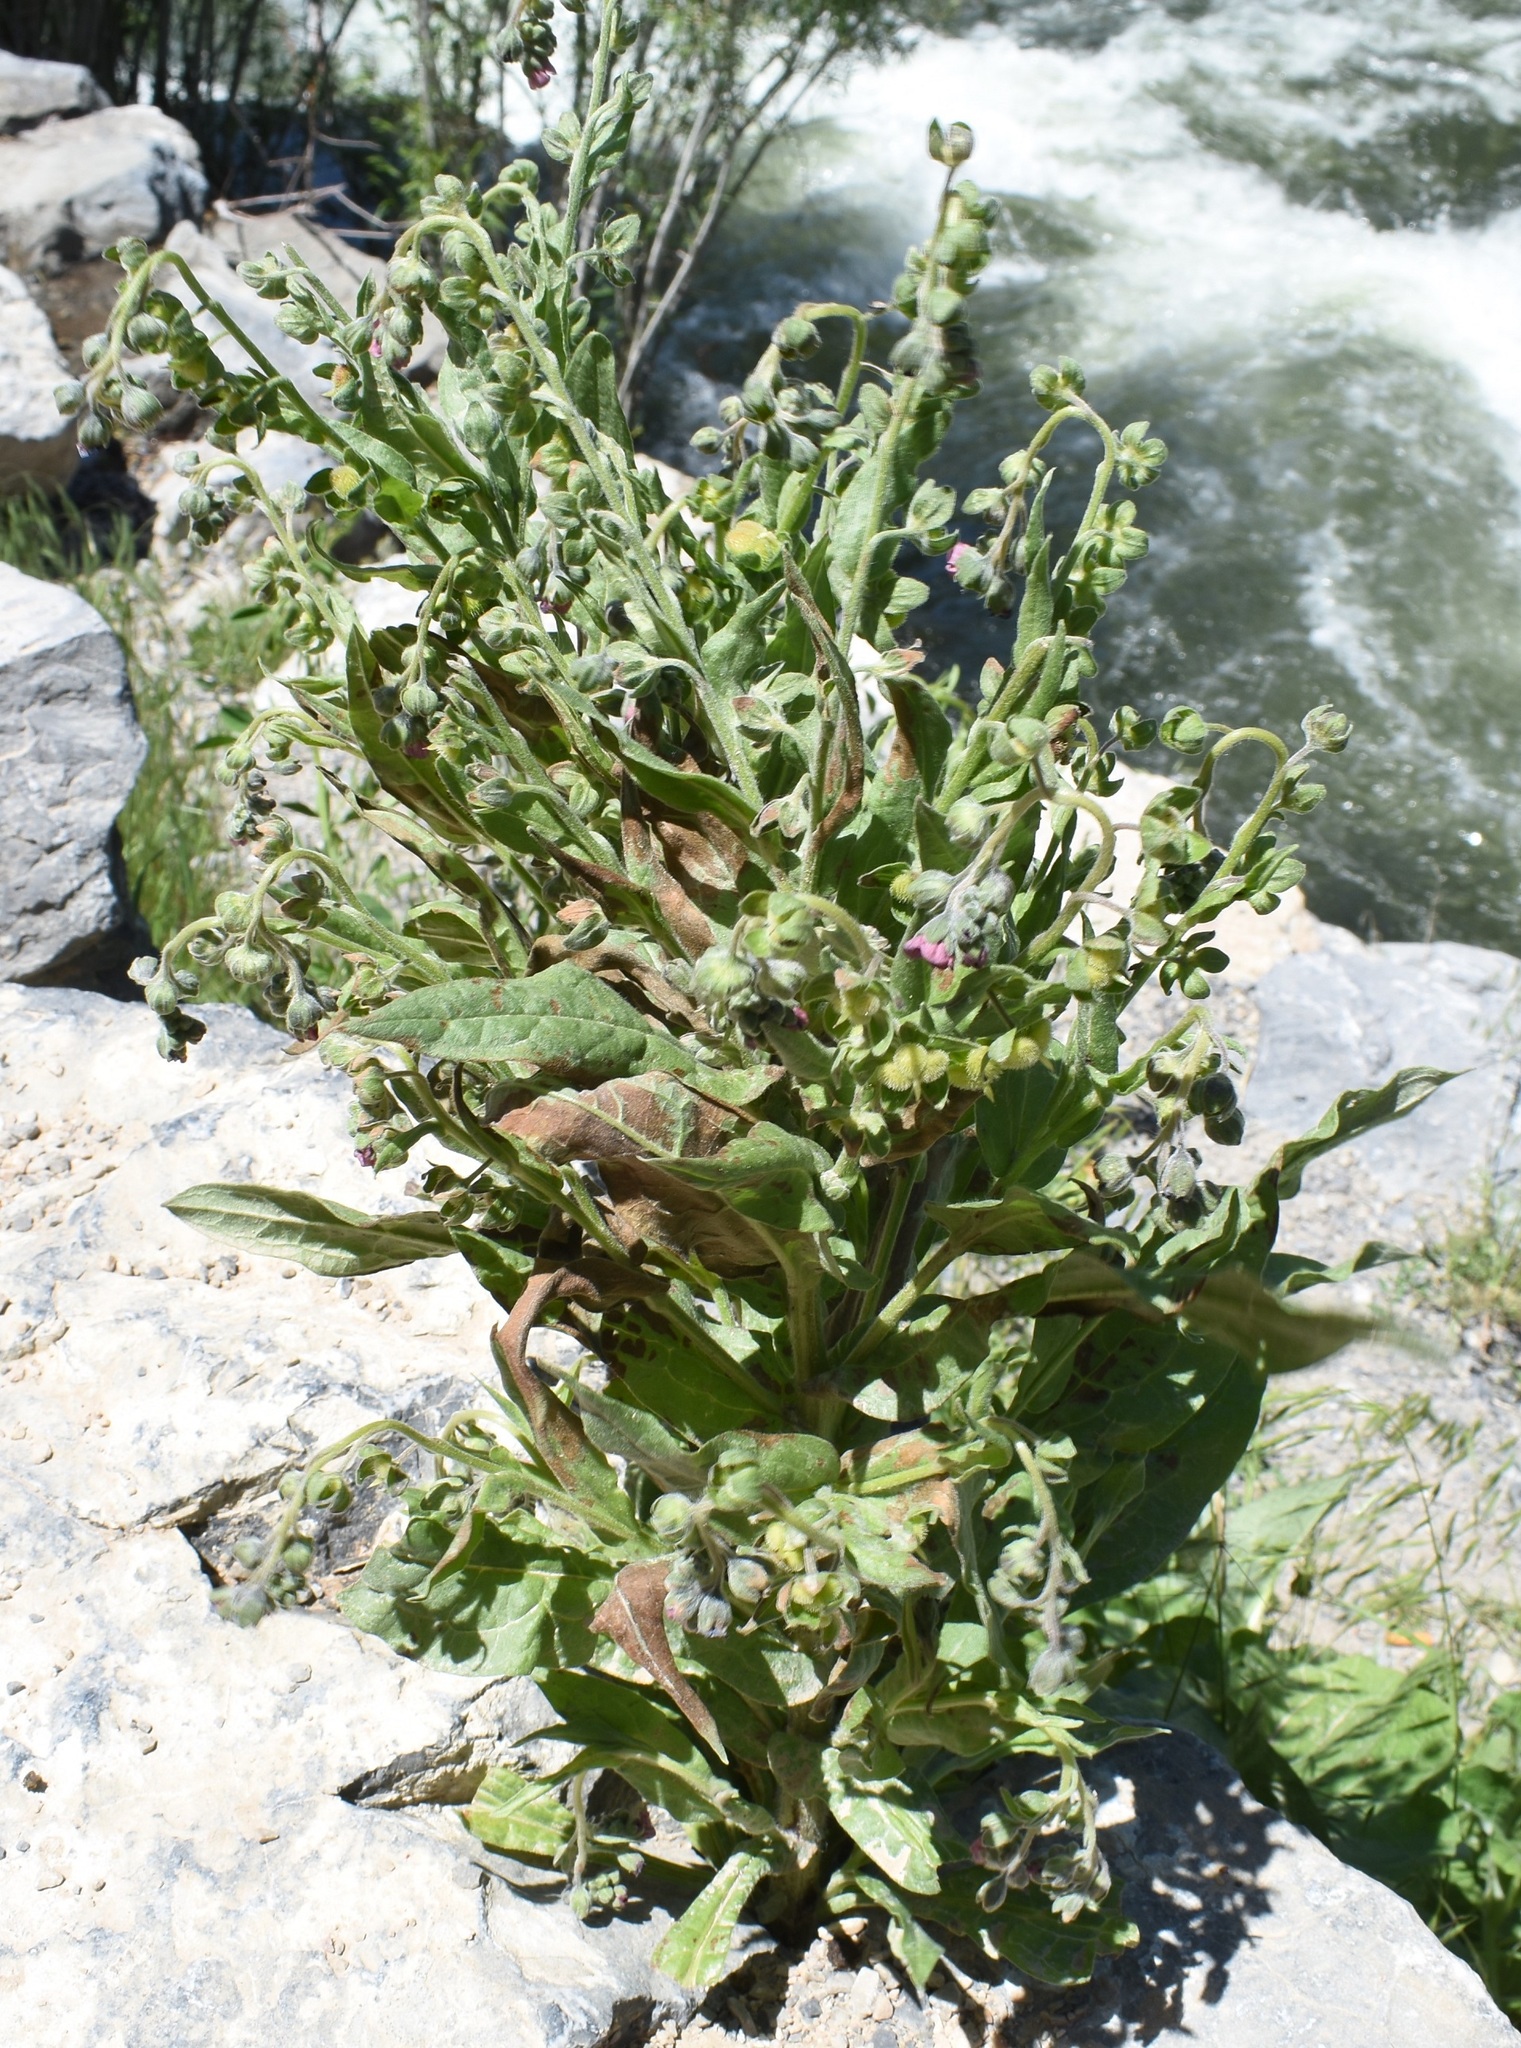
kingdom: Plantae
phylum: Tracheophyta
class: Magnoliopsida
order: Boraginales
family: Boraginaceae
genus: Cynoglossum
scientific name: Cynoglossum officinale
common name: Hound's-tongue
